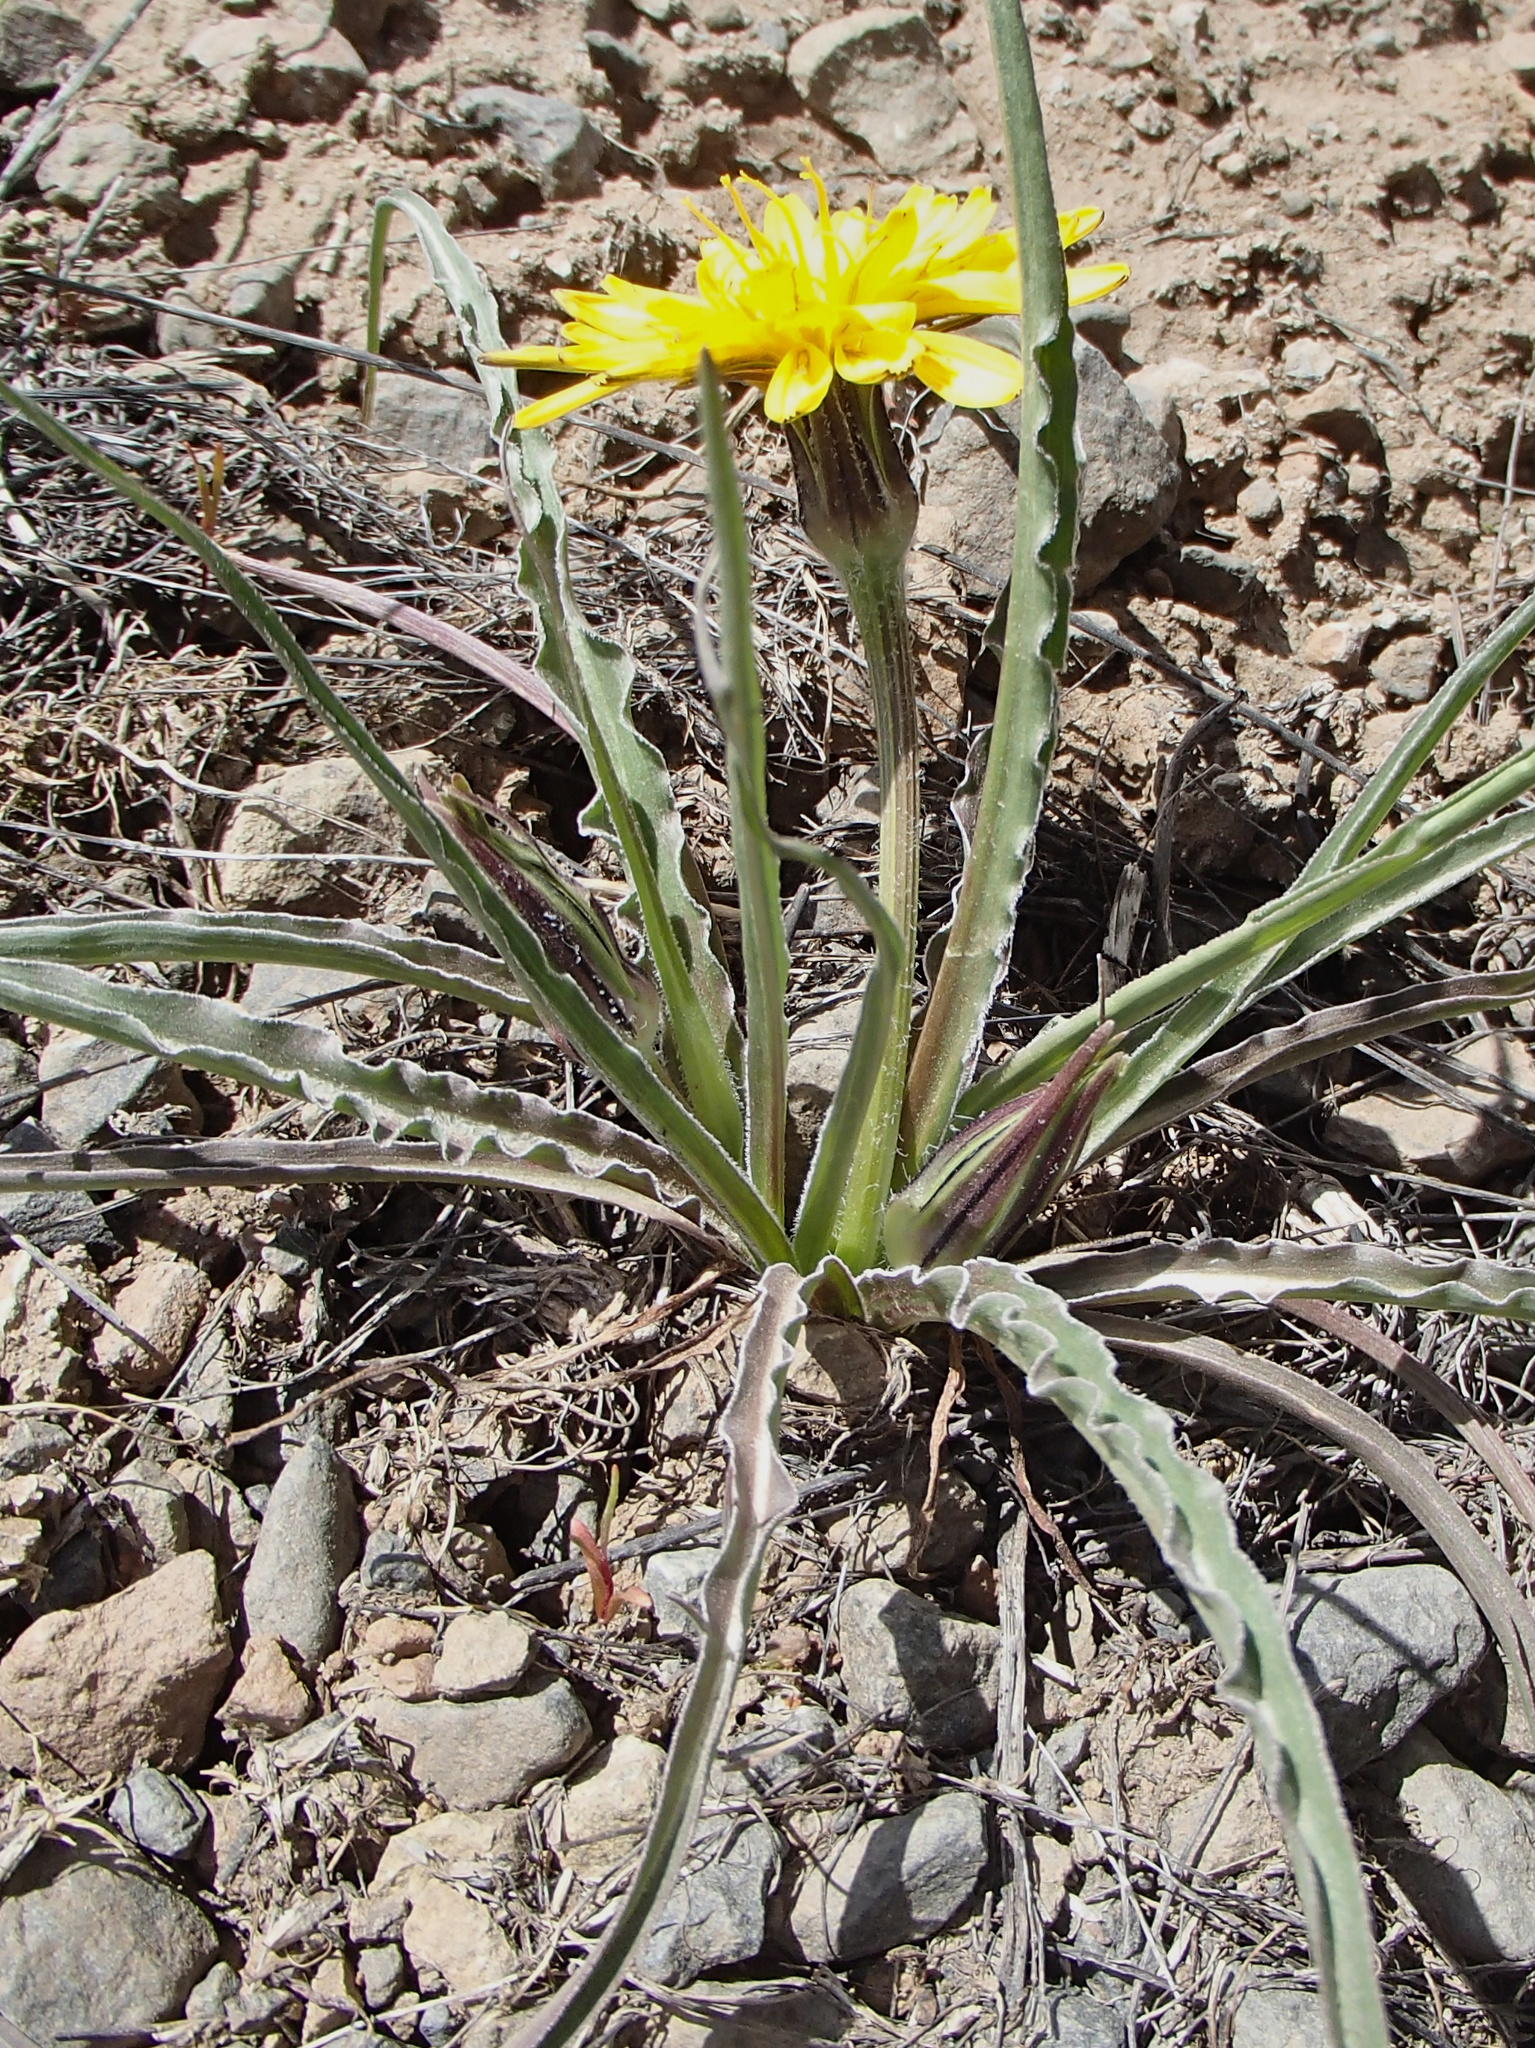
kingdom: Plantae
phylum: Tracheophyta
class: Magnoliopsida
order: Asterales
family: Asteraceae
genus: Microseris
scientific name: Microseris troximoides
